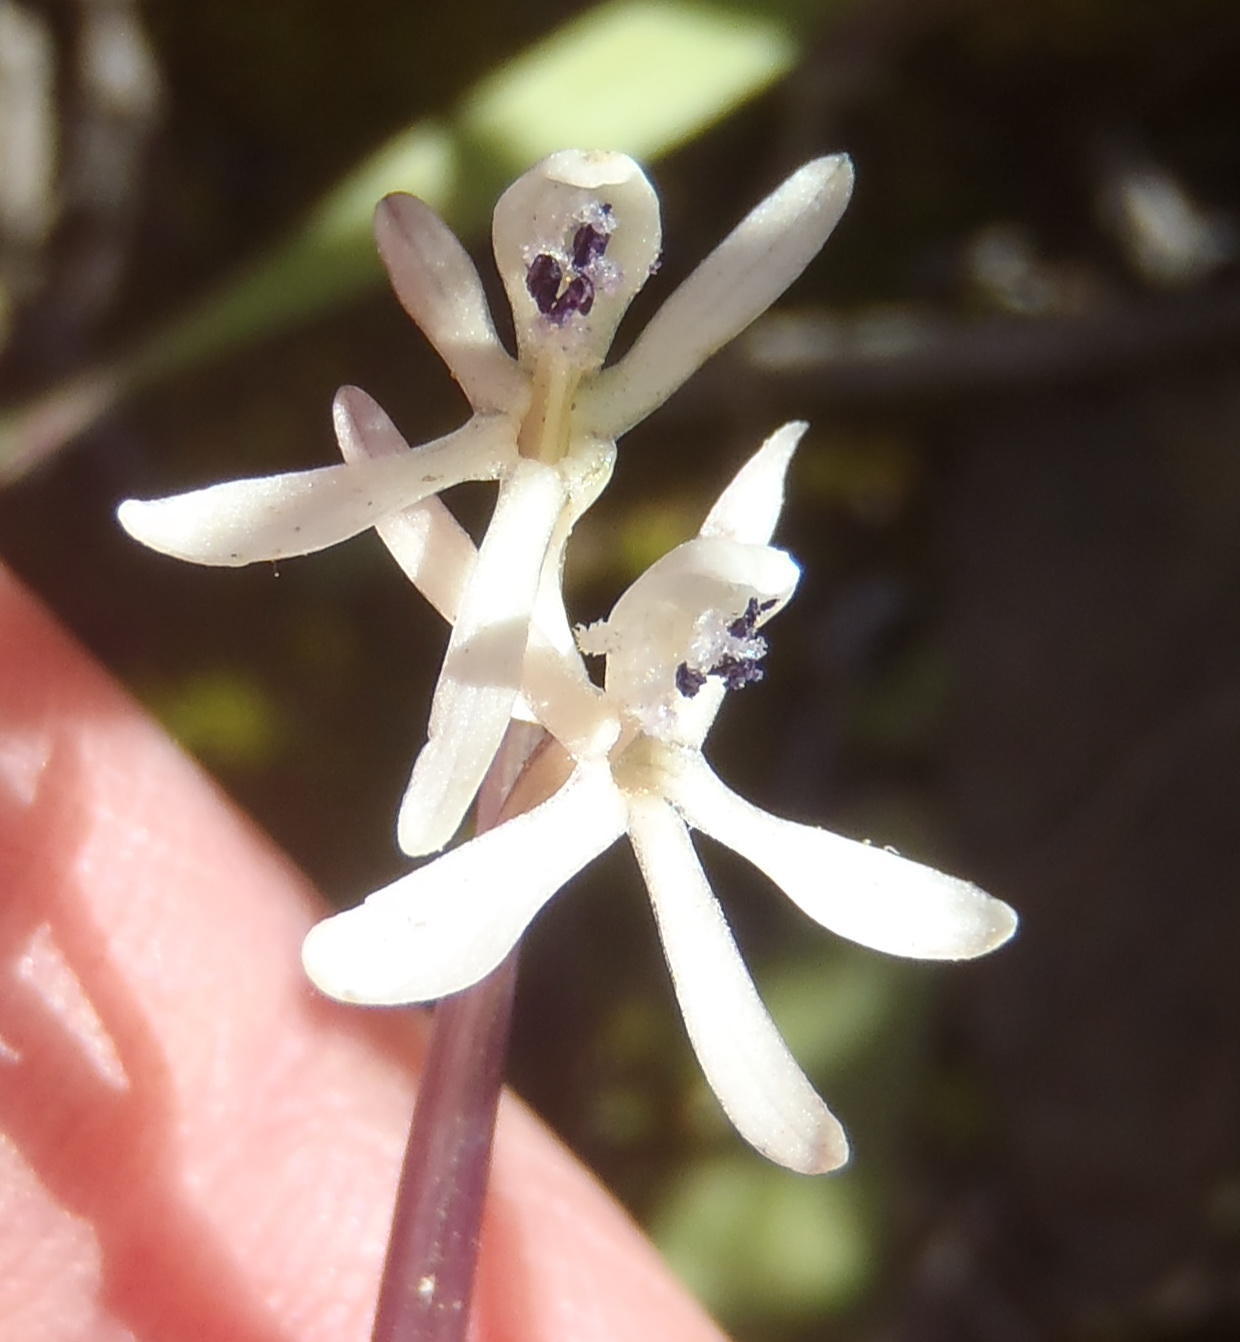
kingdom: Plantae
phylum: Tracheophyta
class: Liliopsida
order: Asparagales
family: Iridaceae
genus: Xenoscapa
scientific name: Xenoscapa fistulosa
